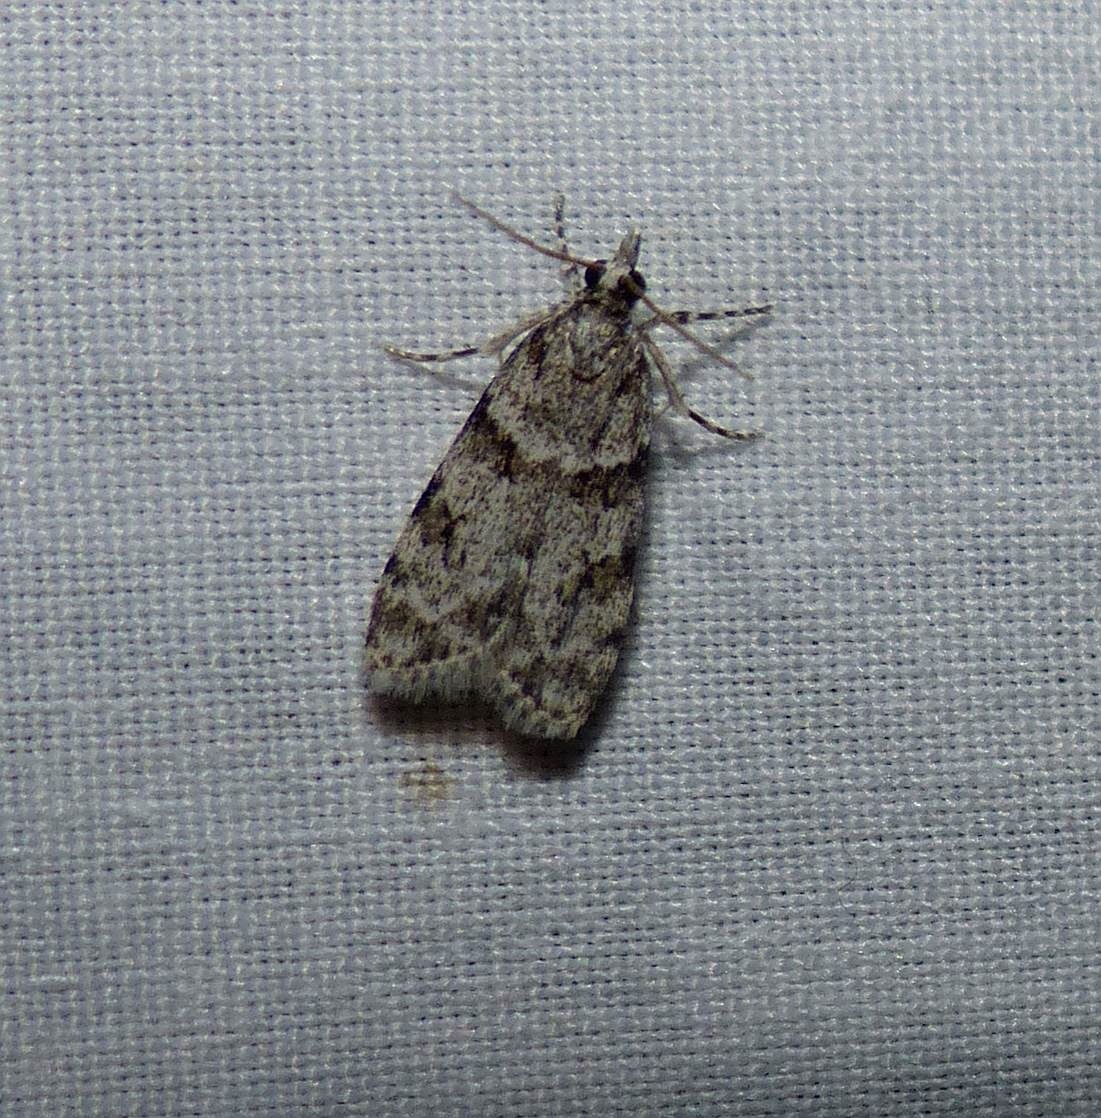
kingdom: Animalia
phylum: Arthropoda
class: Insecta
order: Lepidoptera
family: Crambidae
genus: Scoparia
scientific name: Scoparia biplagialis
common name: Double-striped scoparia moth
